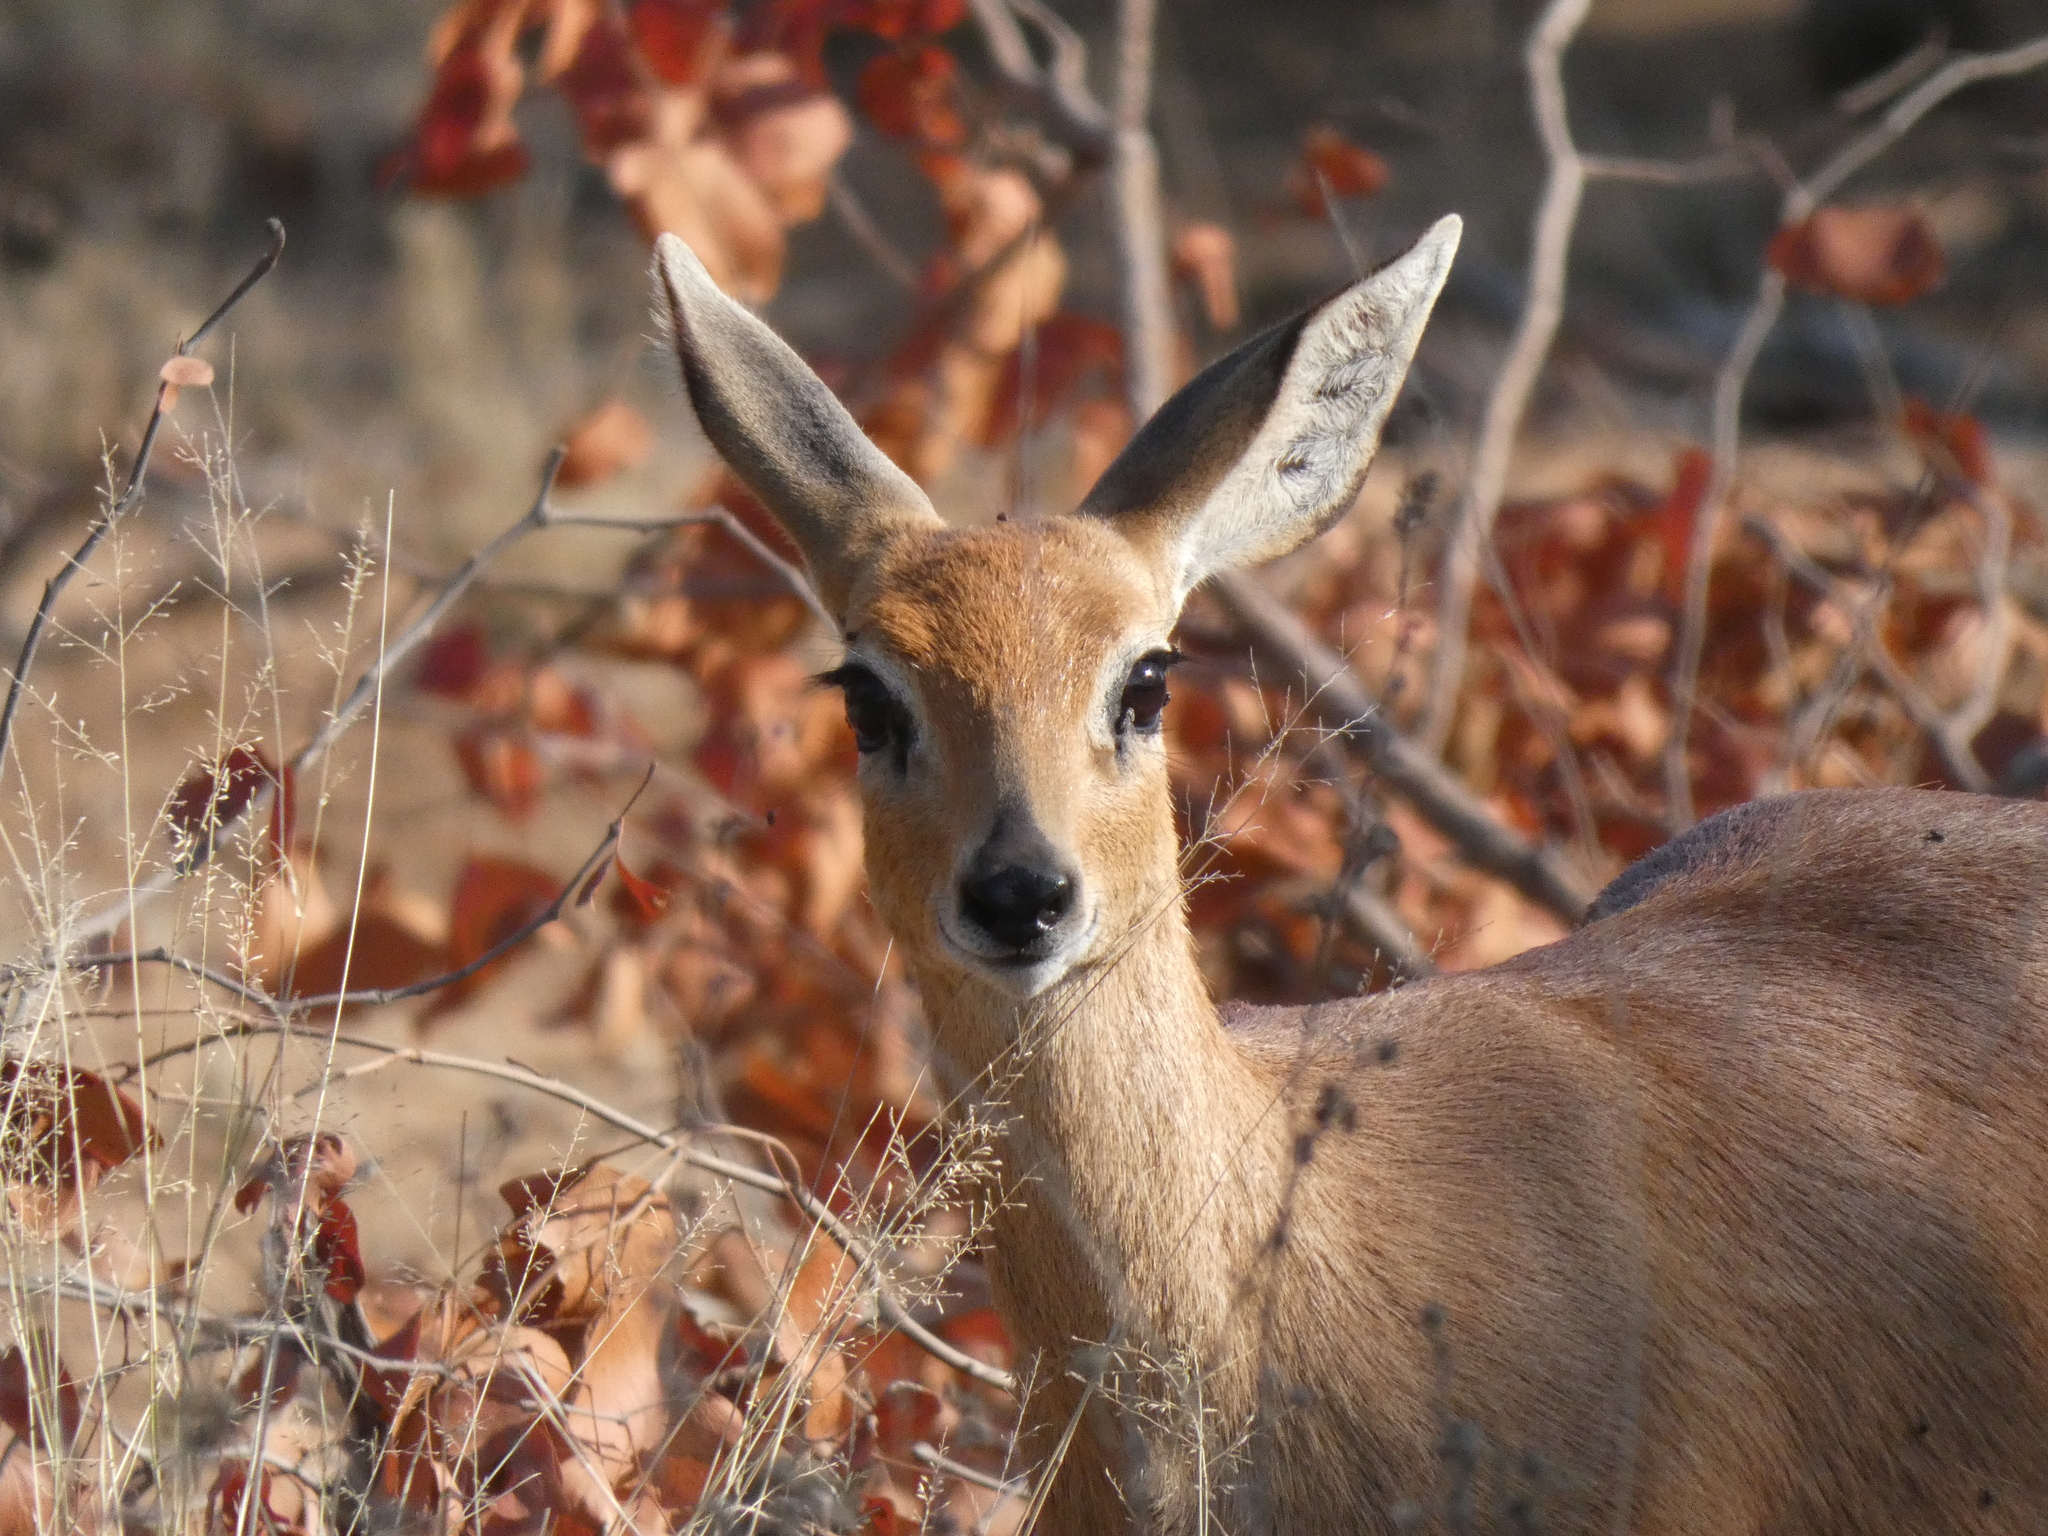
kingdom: Animalia
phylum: Chordata
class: Mammalia
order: Artiodactyla
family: Bovidae
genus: Raphicerus
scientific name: Raphicerus campestris
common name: Steenbok
